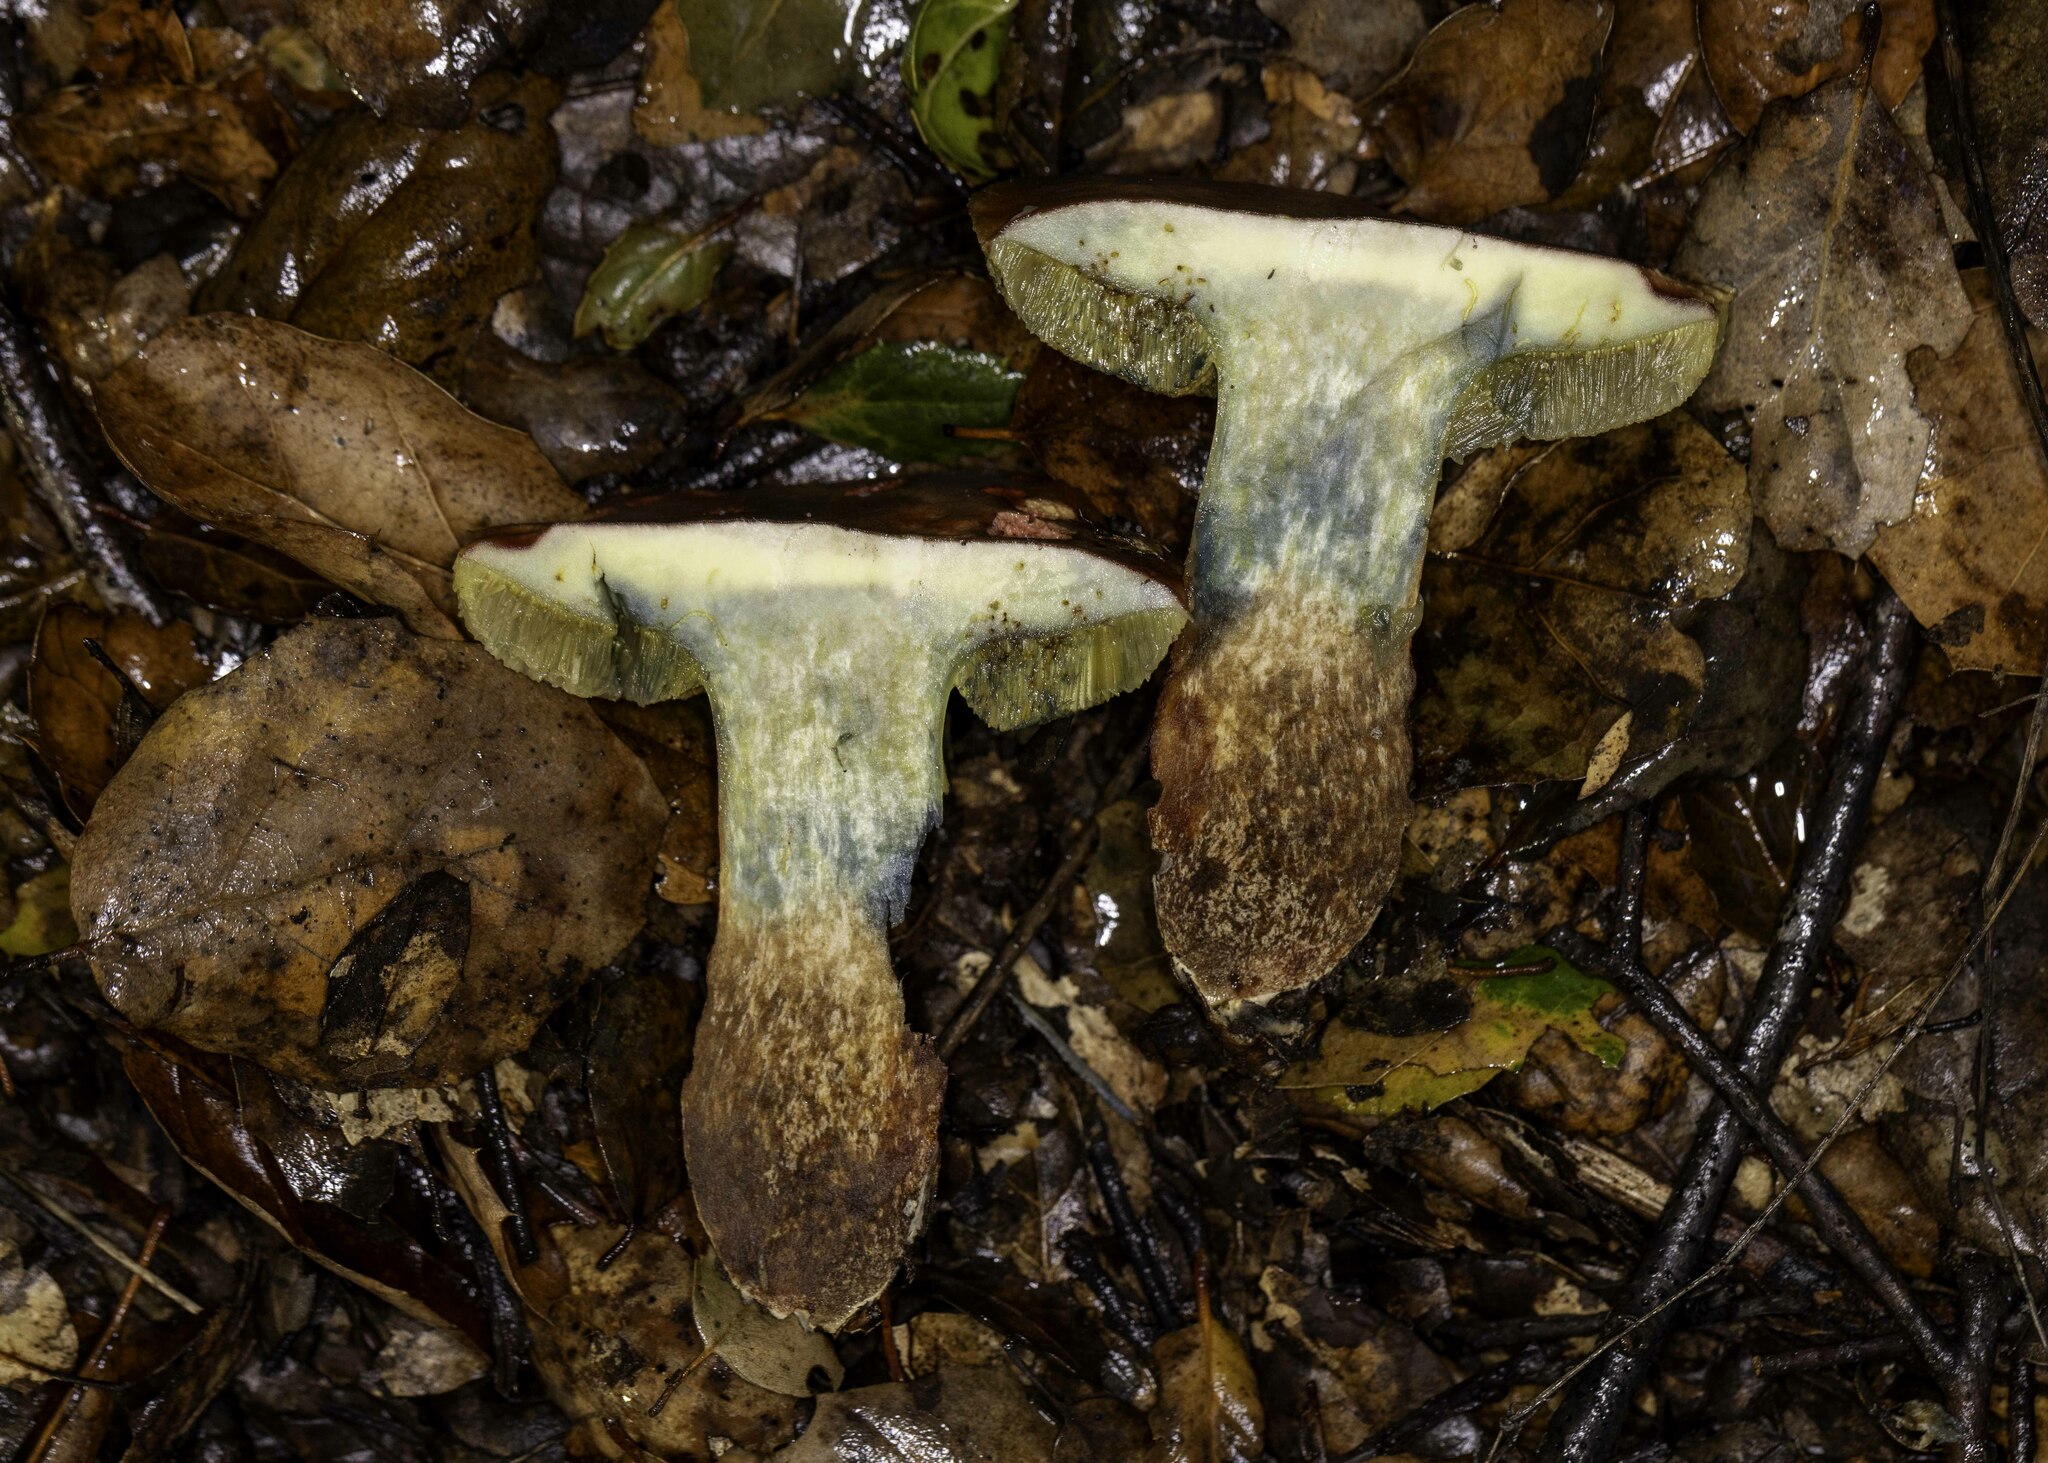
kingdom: Fungi
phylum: Basidiomycota
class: Agaricomycetes
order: Boletales
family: Boletaceae
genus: Xerocomellus
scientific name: Xerocomellus dryophilus
